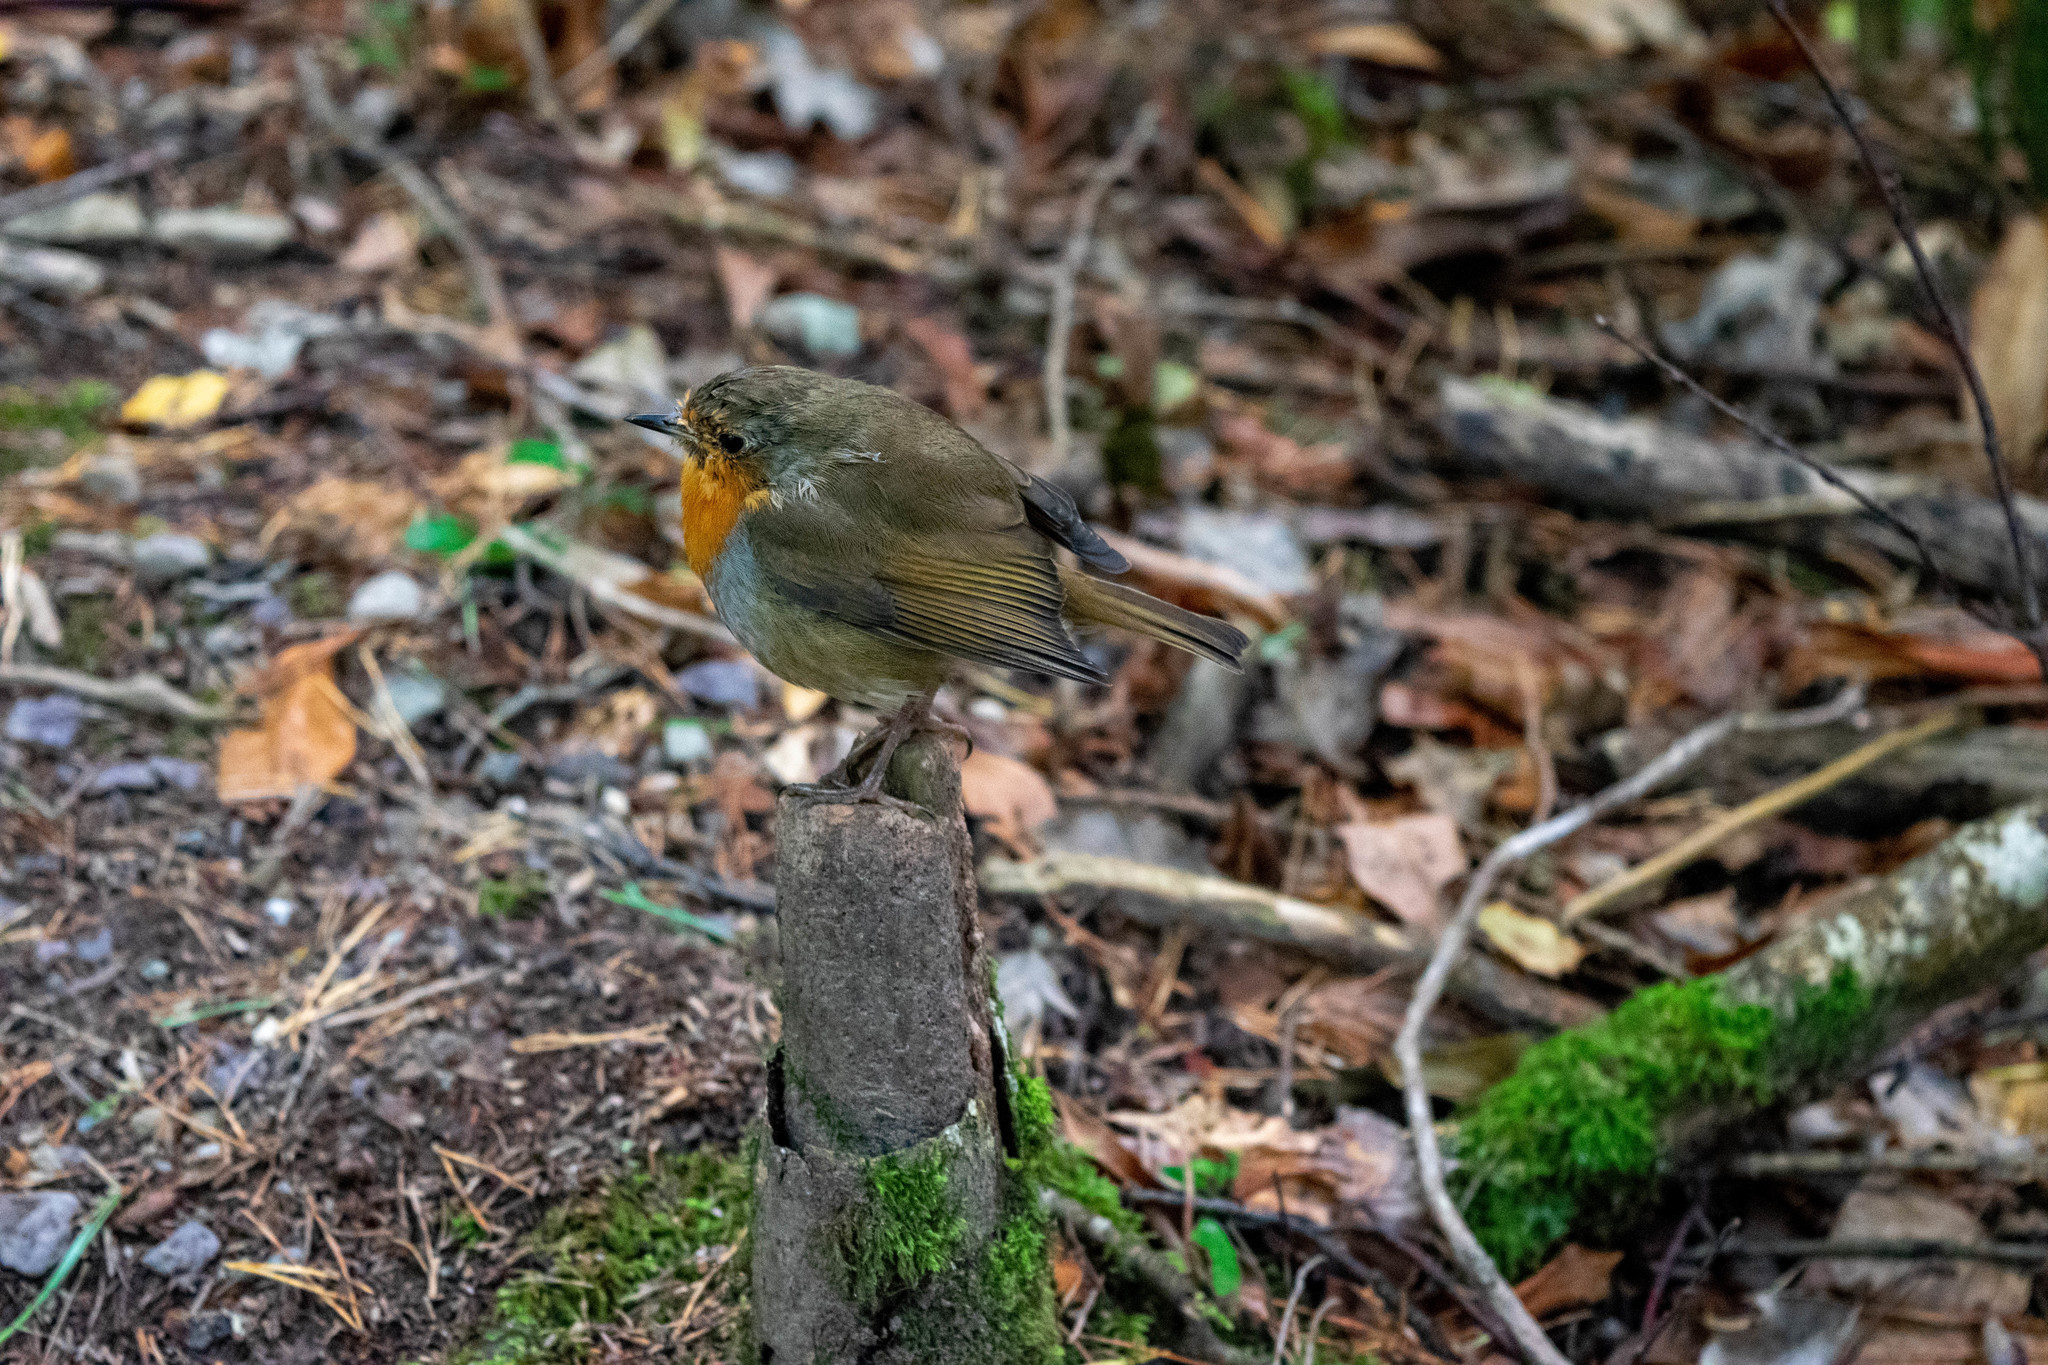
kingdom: Animalia
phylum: Chordata
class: Aves
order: Passeriformes
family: Muscicapidae
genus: Erithacus
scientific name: Erithacus rubecula
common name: European robin
